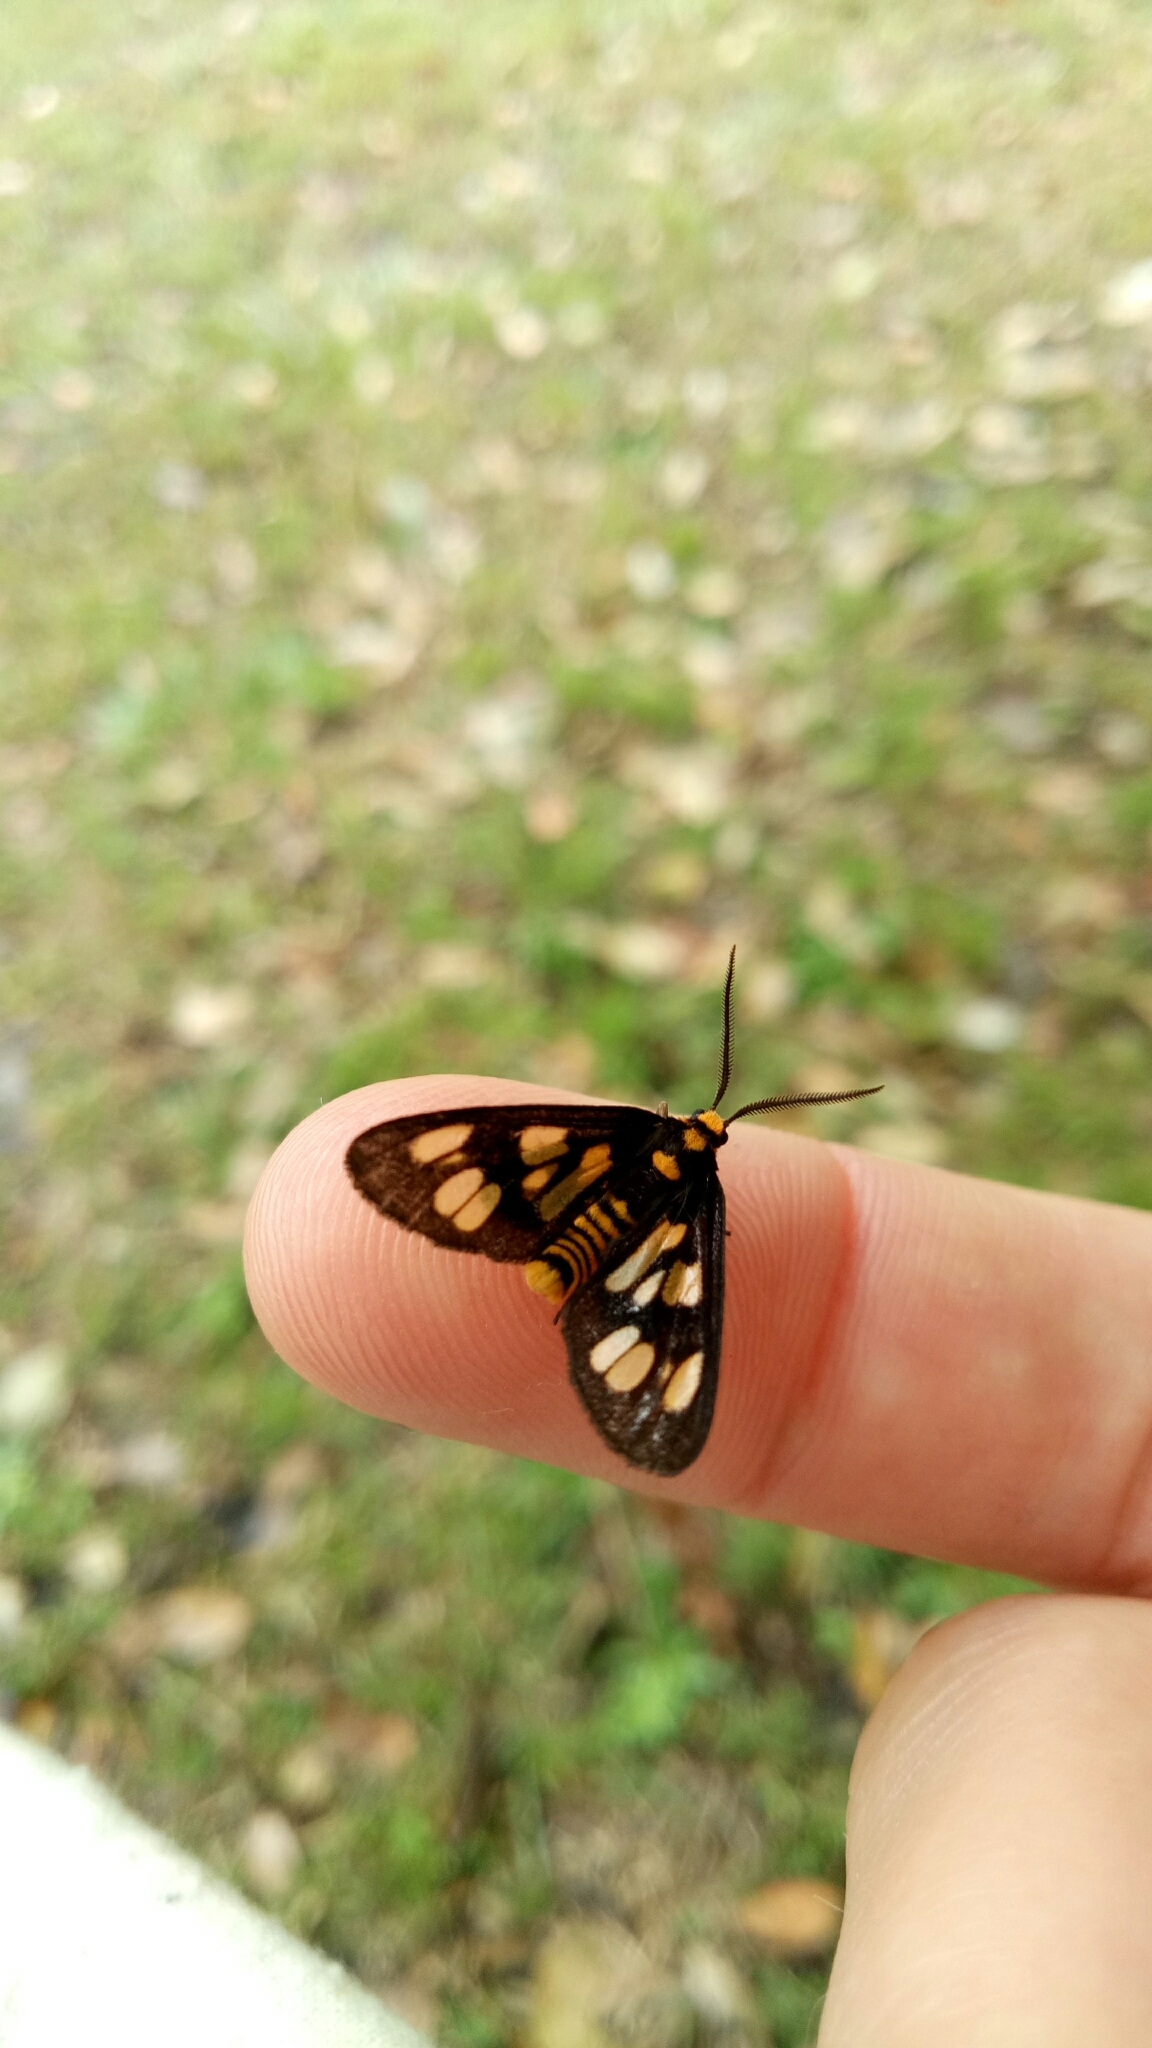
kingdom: Animalia
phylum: Arthropoda
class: Insecta
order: Lepidoptera
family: Erebidae
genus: Eressa
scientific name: Eressa geographica
